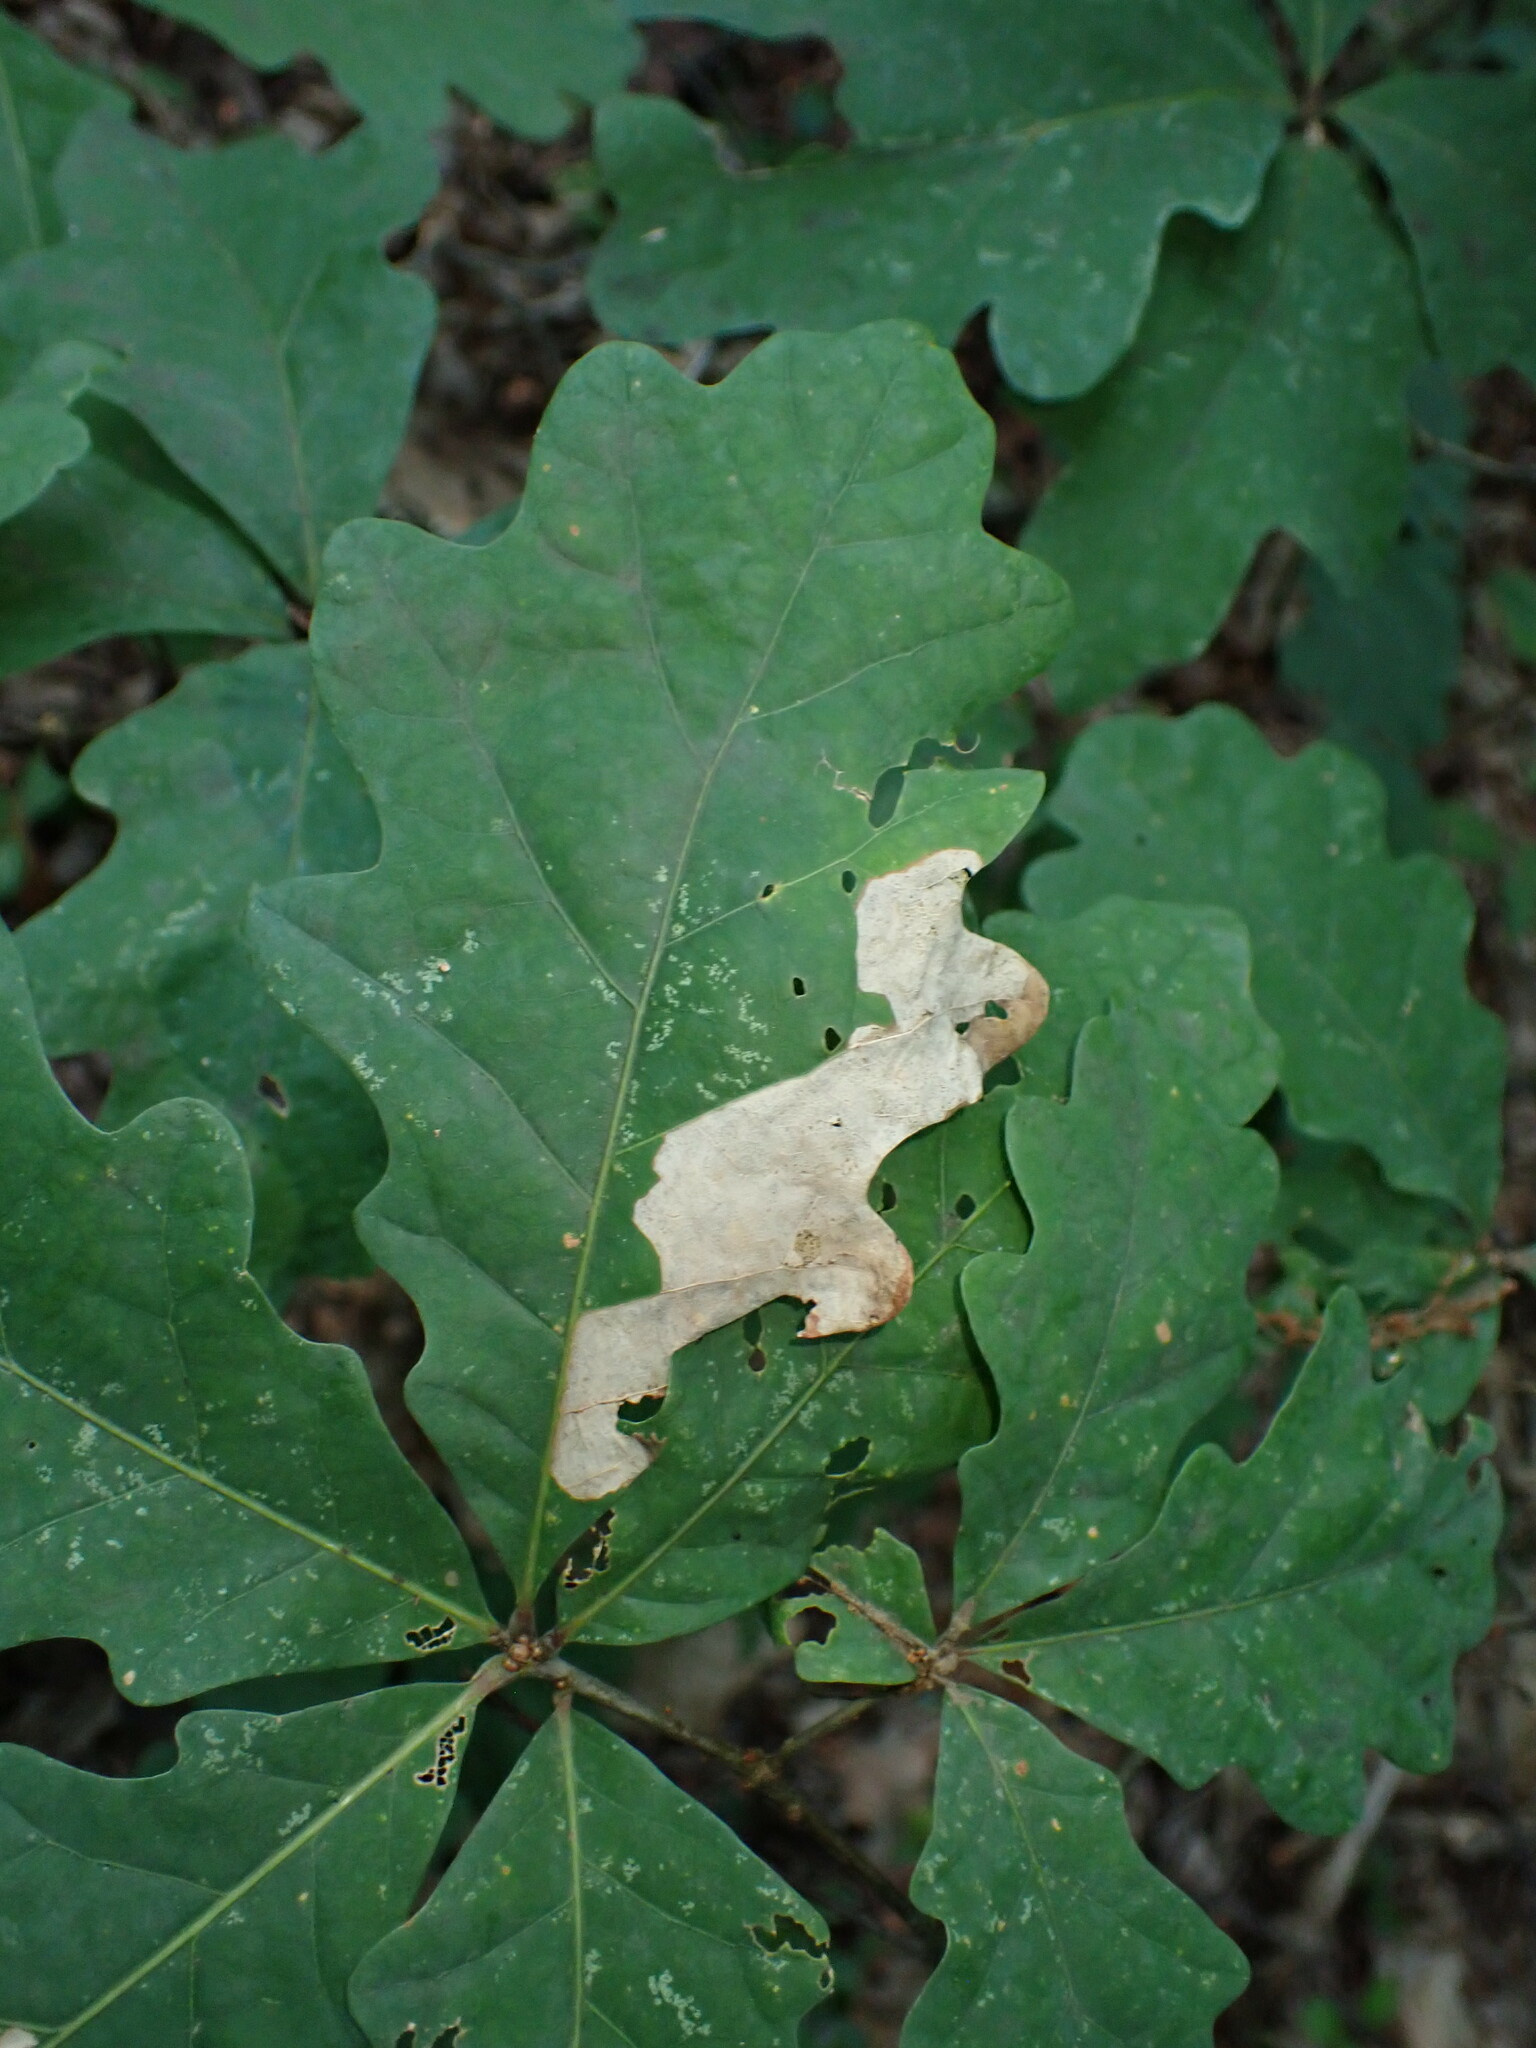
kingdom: Plantae
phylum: Tracheophyta
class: Magnoliopsida
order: Fagales
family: Fagaceae
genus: Quercus
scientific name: Quercus alba
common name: White oak
